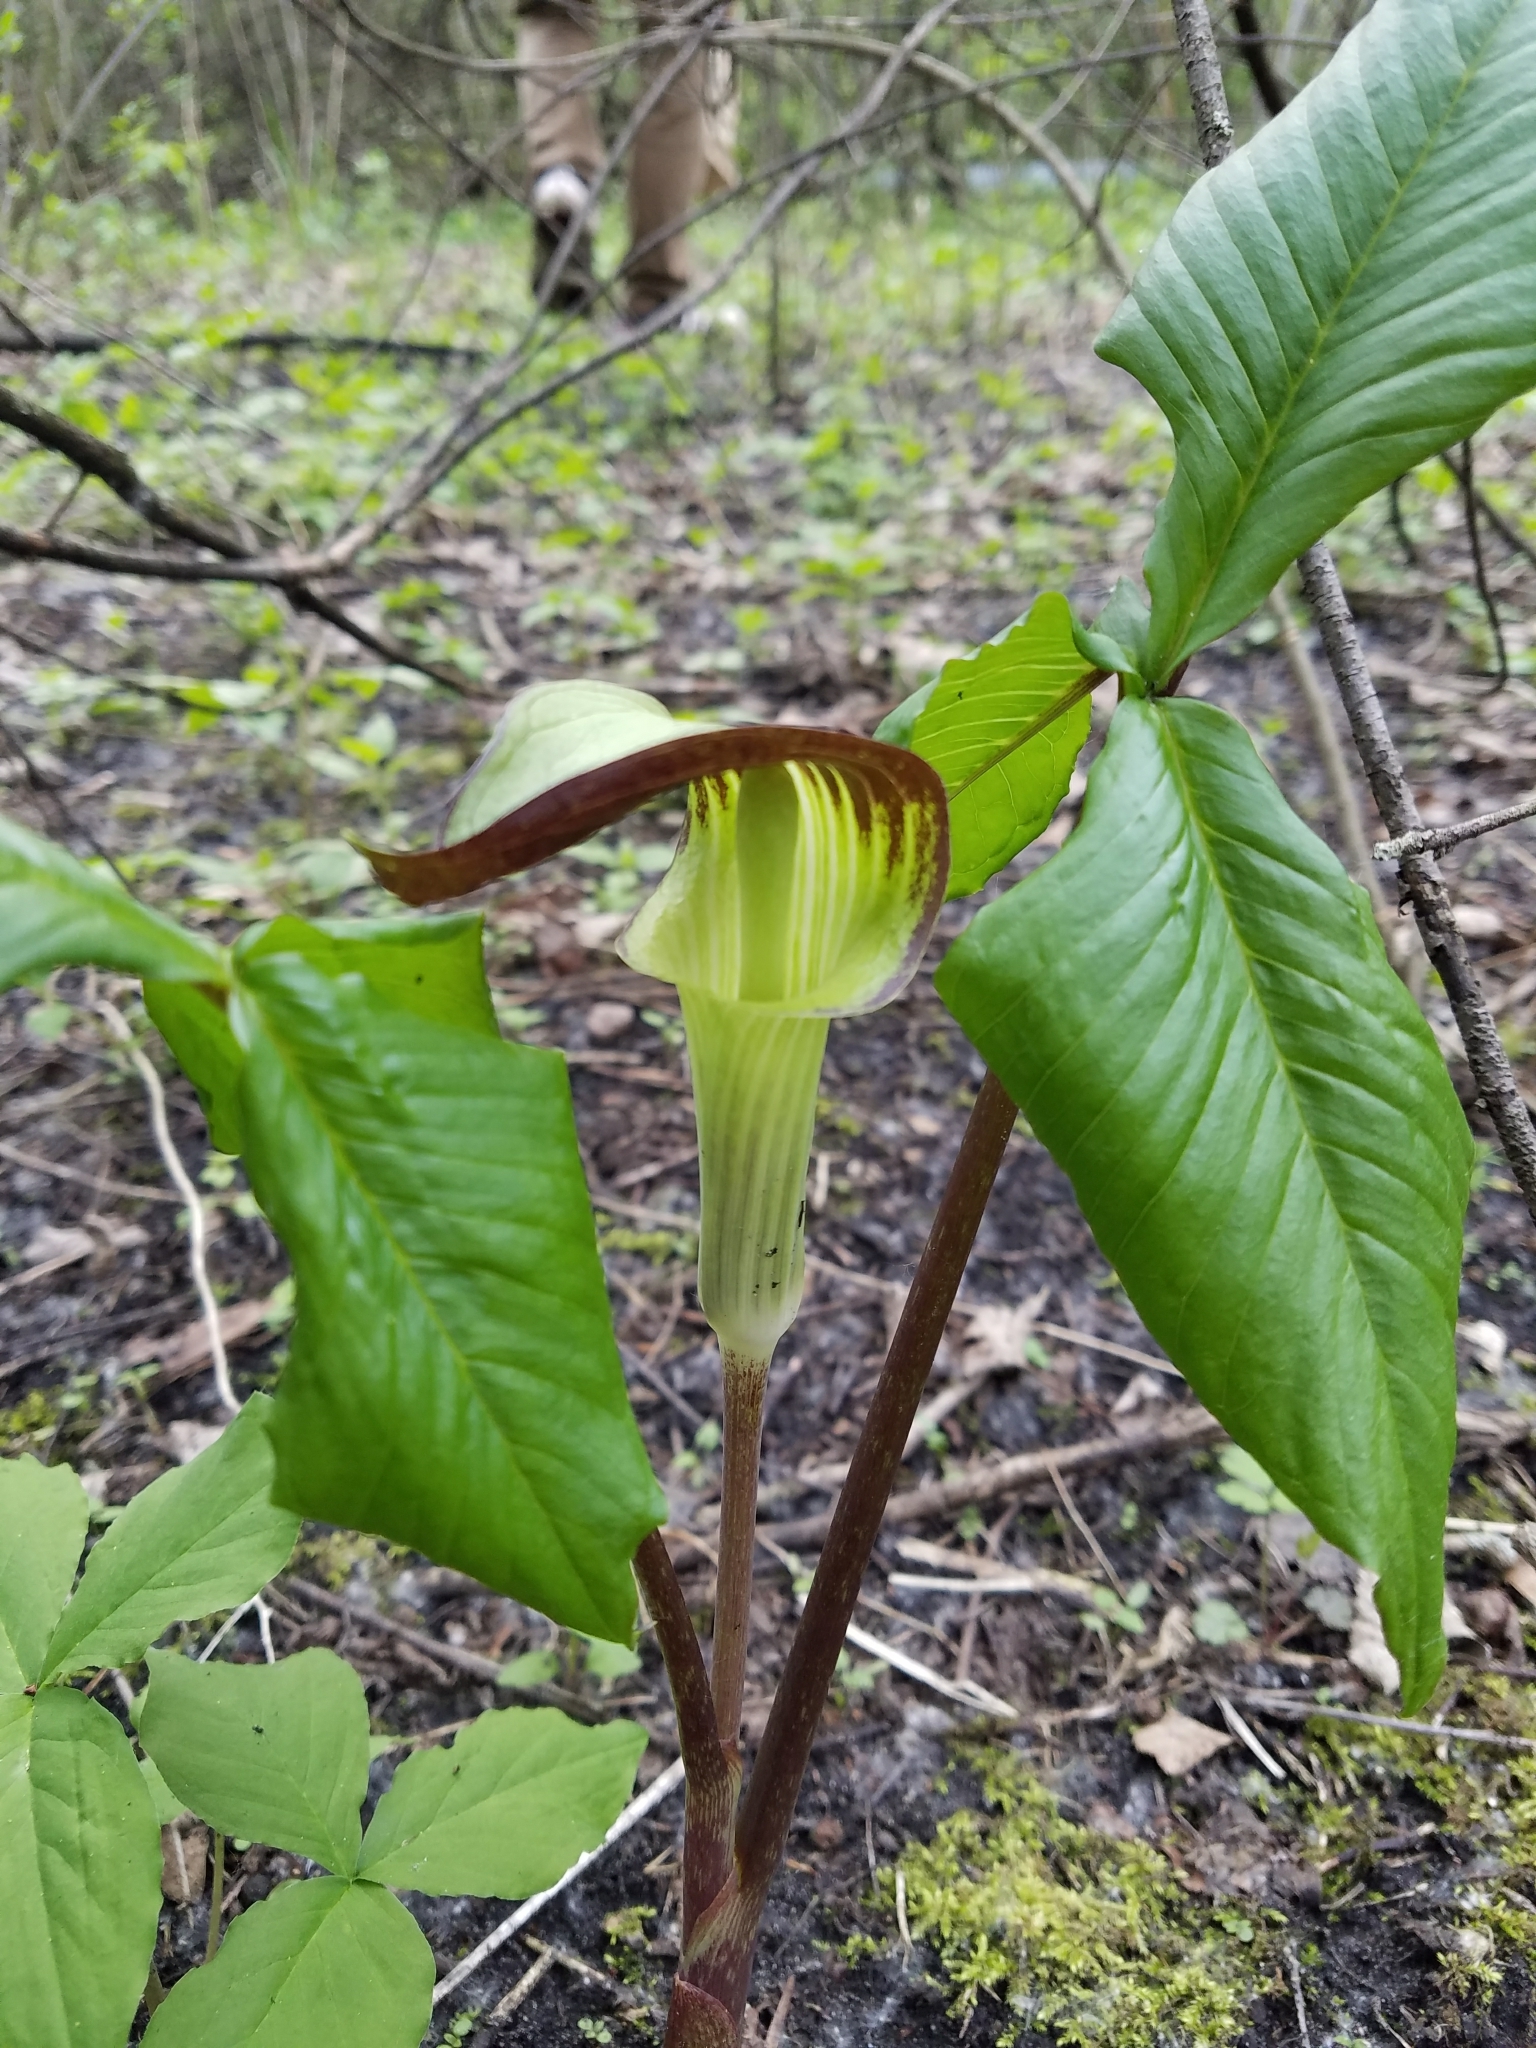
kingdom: Plantae
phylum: Tracheophyta
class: Liliopsida
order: Alismatales
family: Araceae
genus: Arisaema
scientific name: Arisaema triphyllum
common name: Jack-in-the-pulpit
